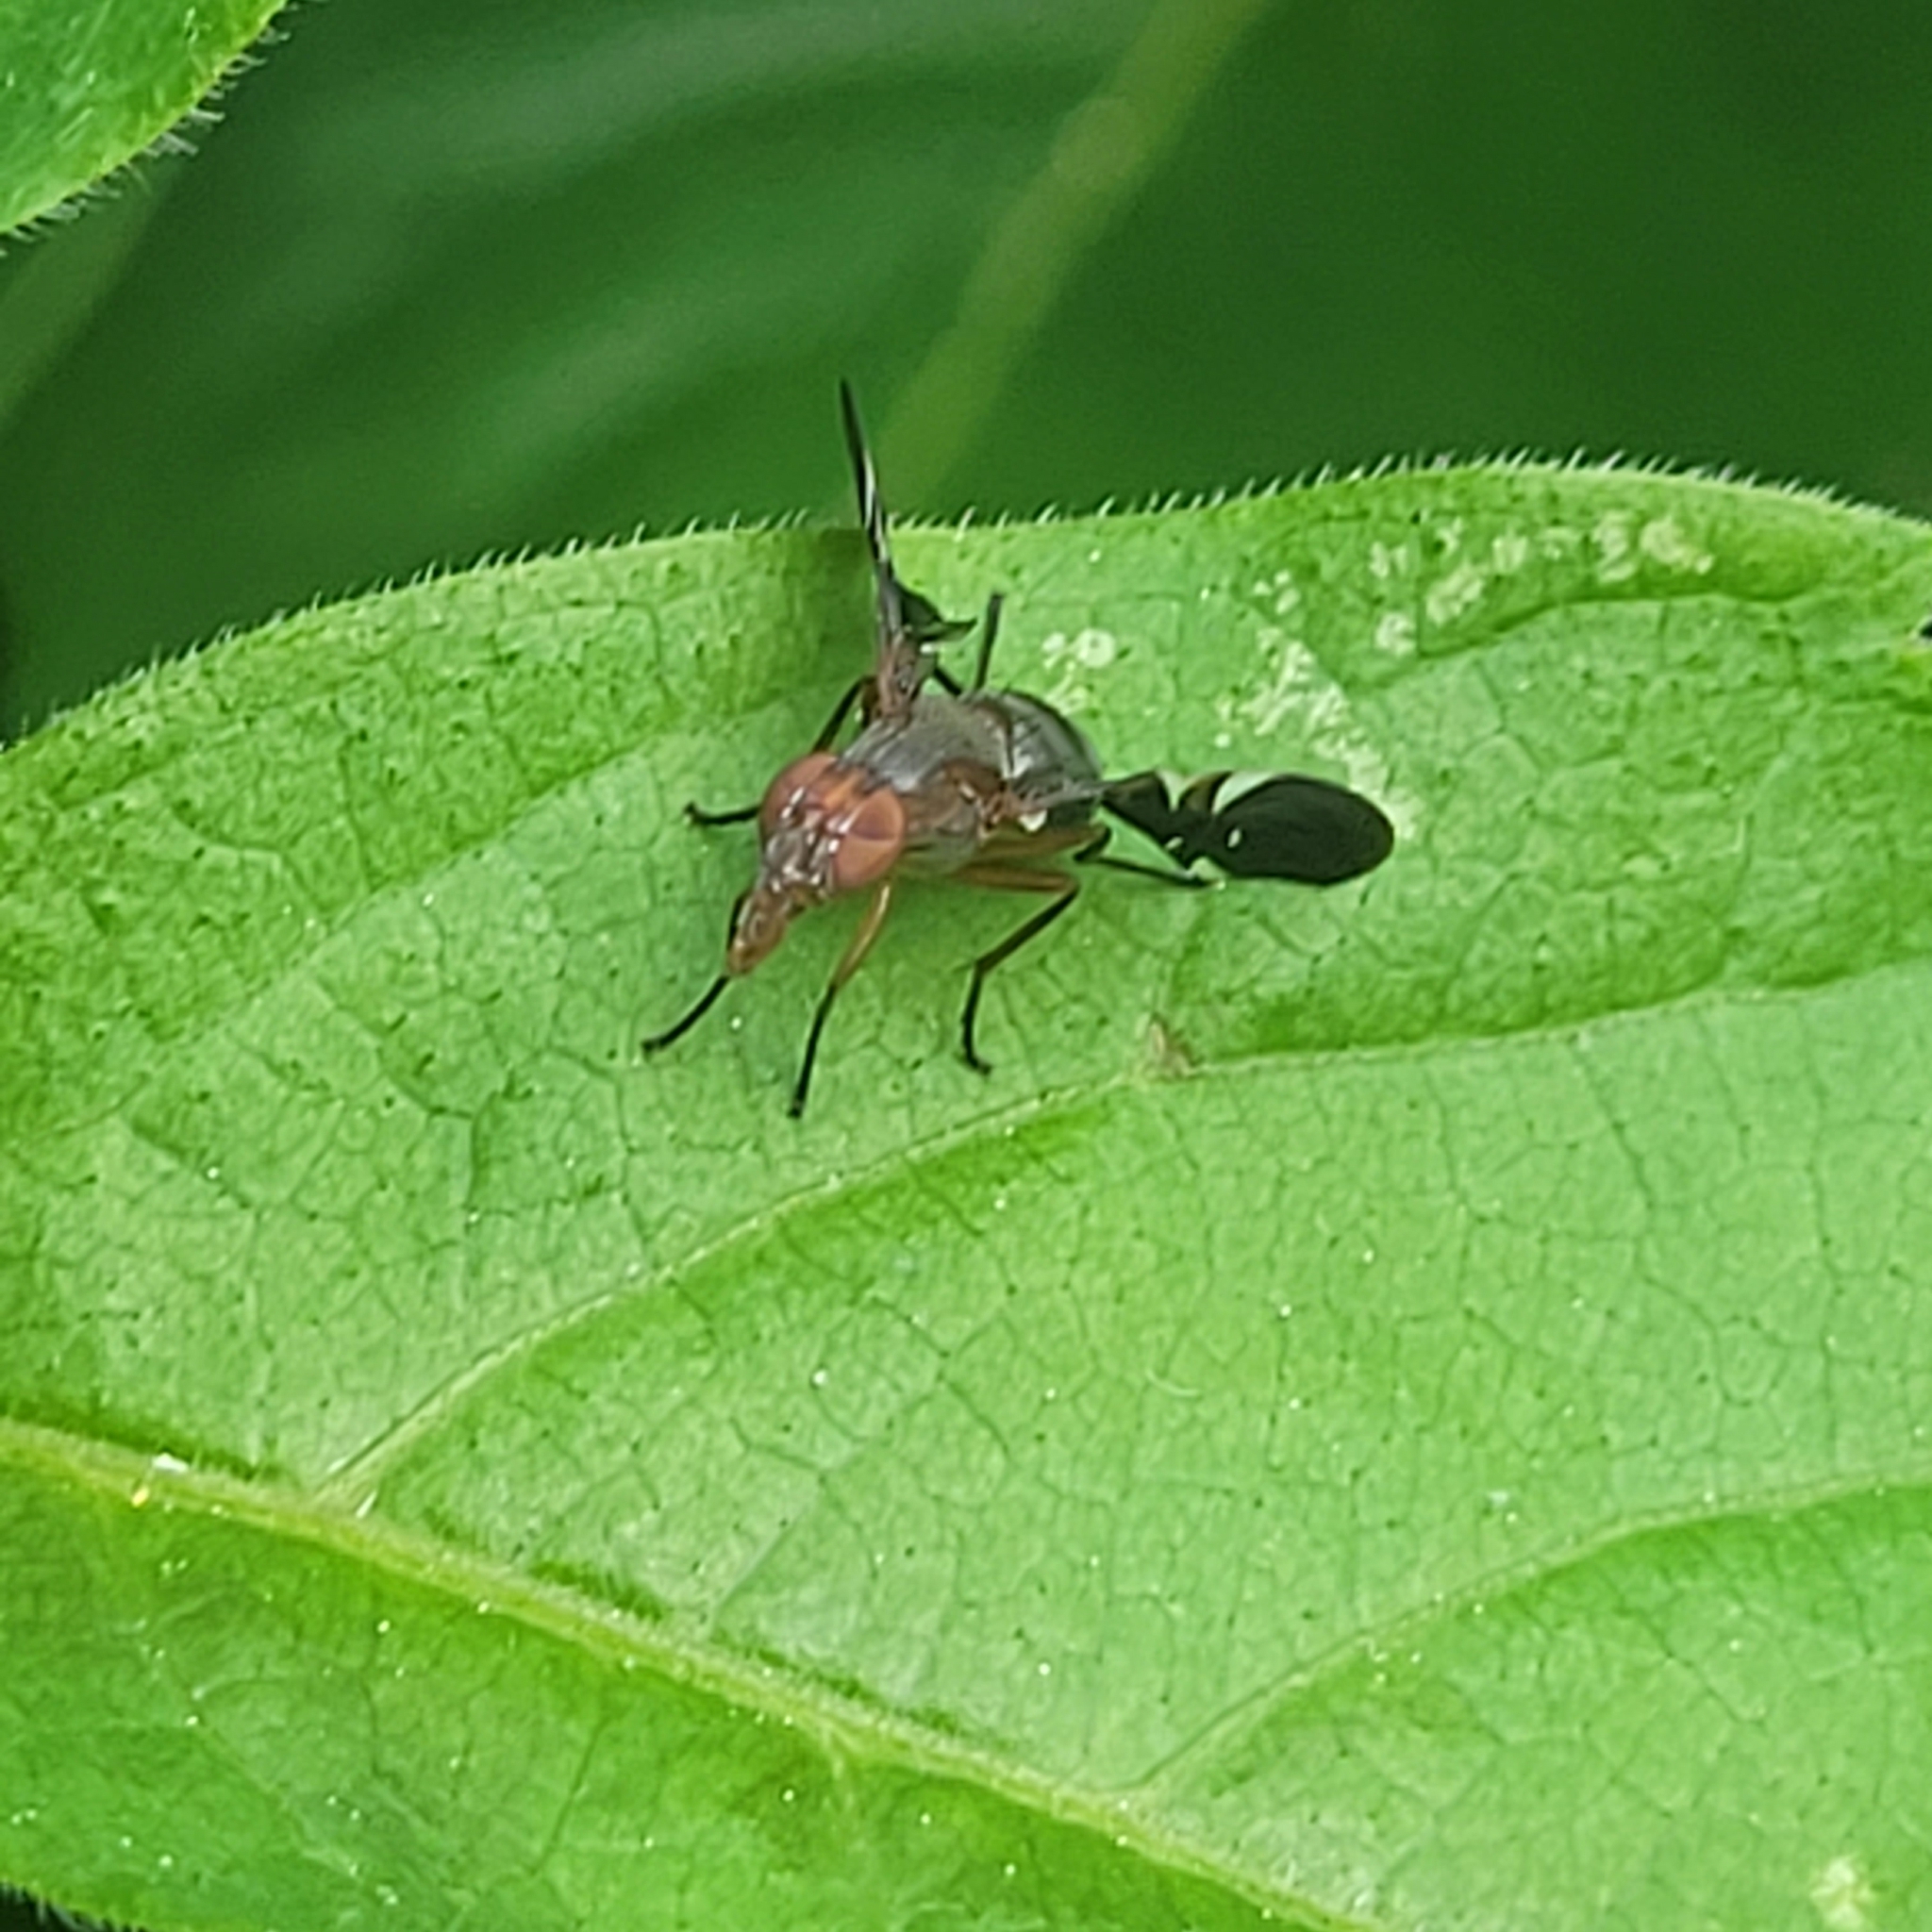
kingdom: Animalia
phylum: Arthropoda
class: Insecta
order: Diptera
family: Ulidiidae
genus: Delphinia
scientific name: Delphinia picta
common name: Common picture-winged fly
